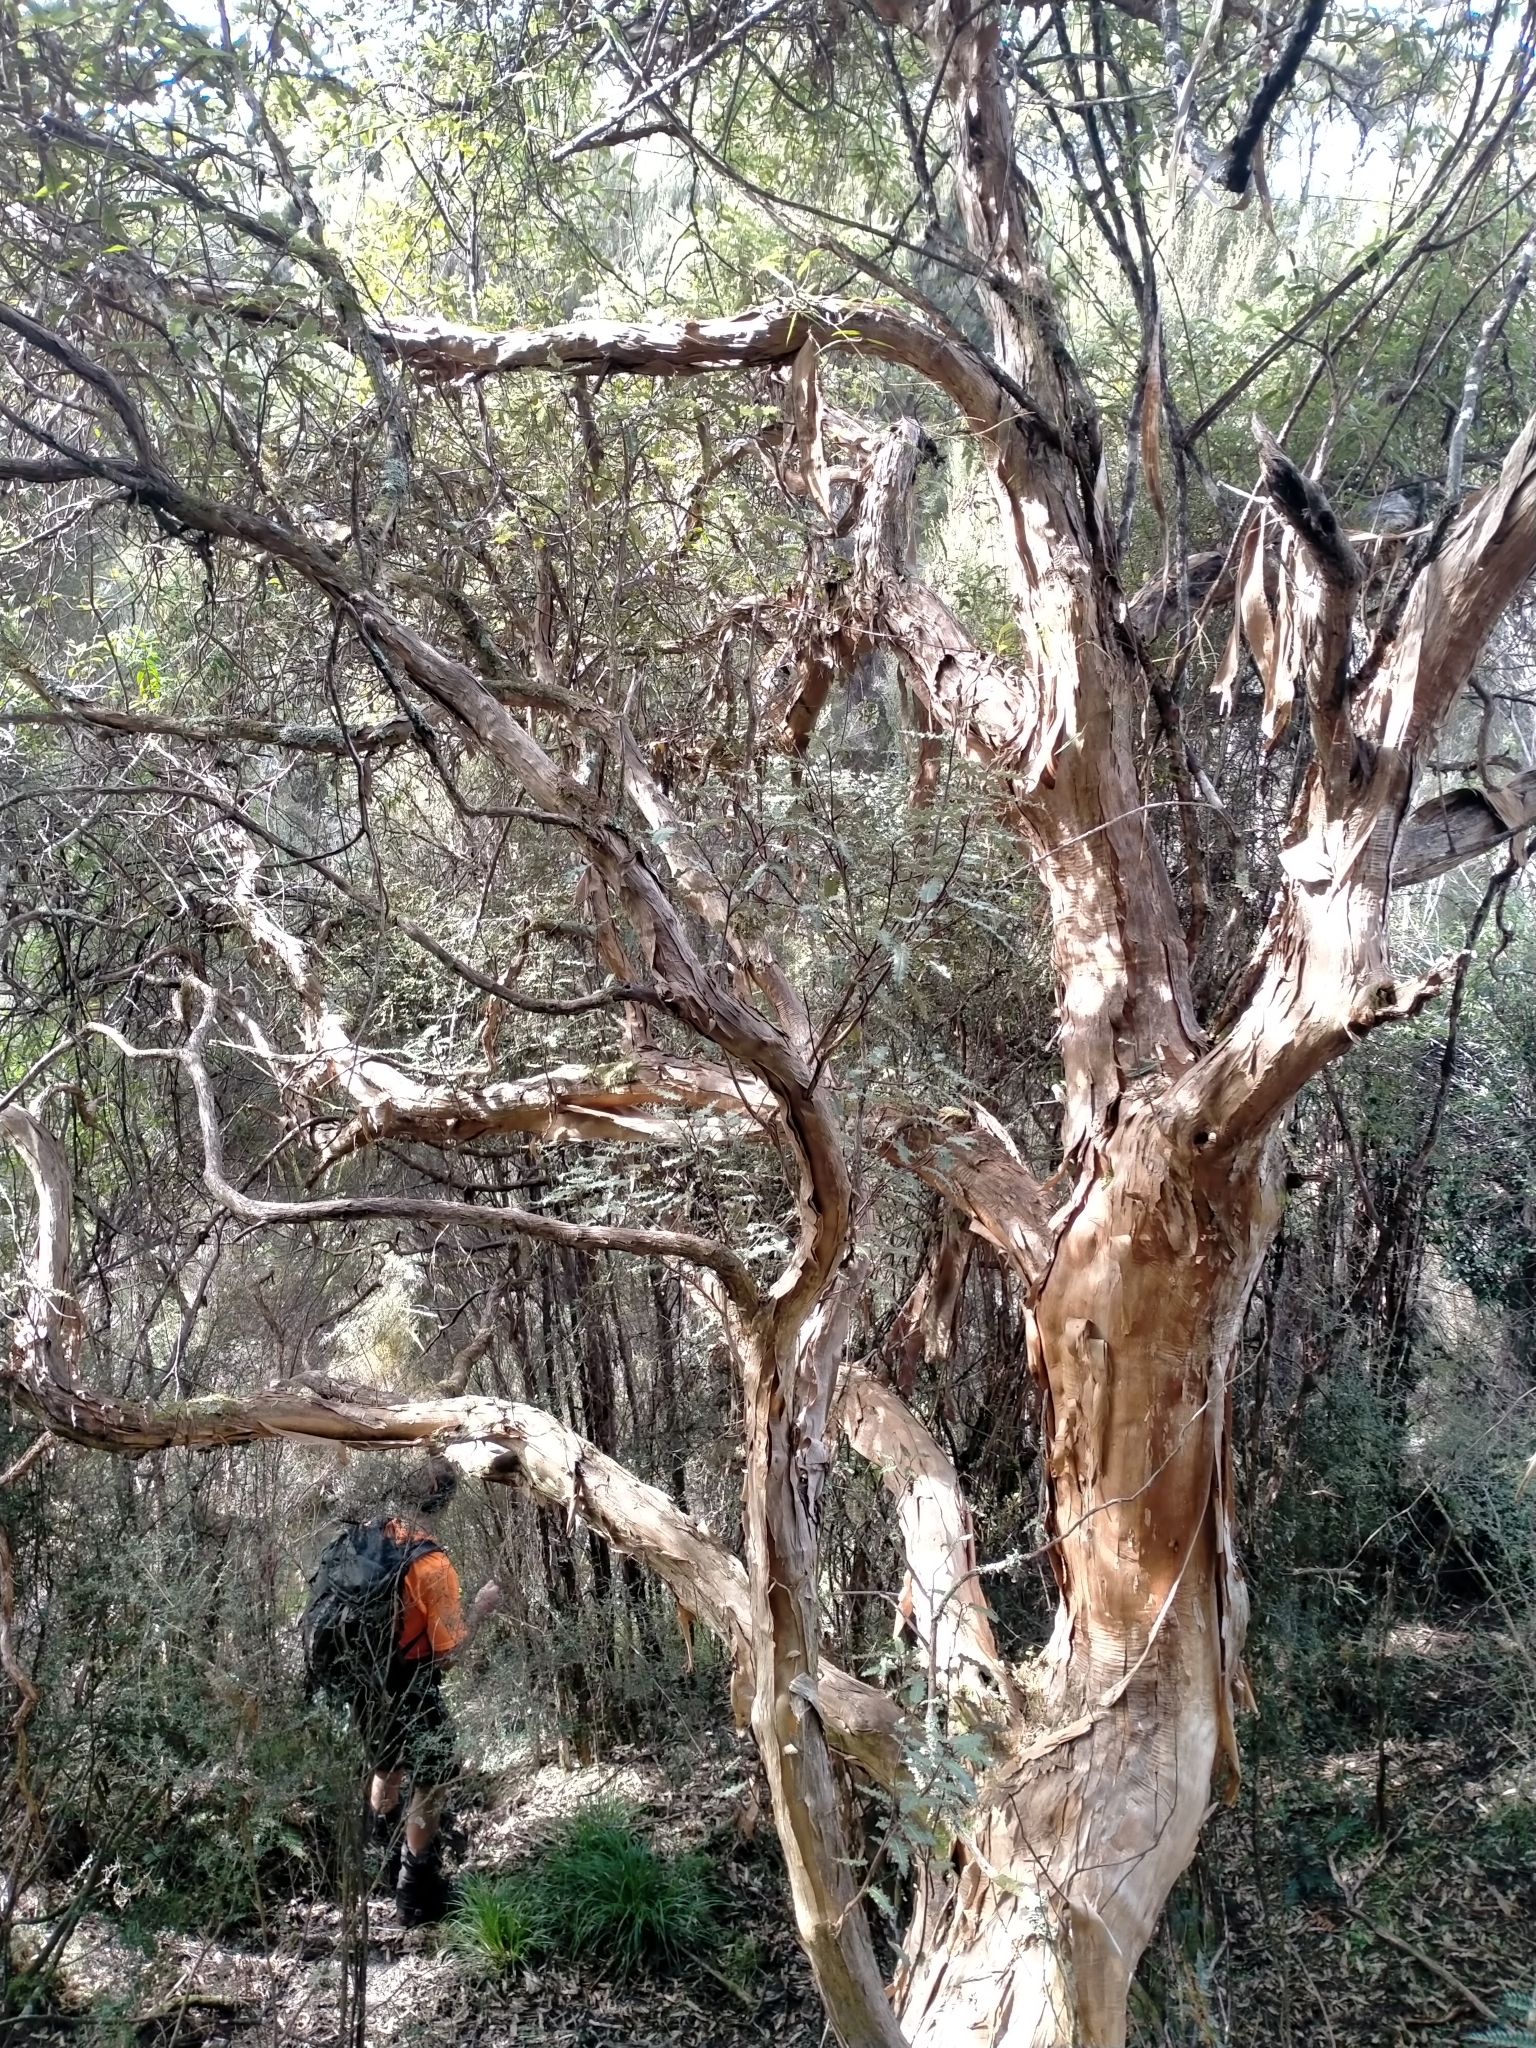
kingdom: Plantae
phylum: Tracheophyta
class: Magnoliopsida
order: Asterales
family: Asteraceae
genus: Olearia
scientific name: Olearia ilicifolia
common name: Maori-holly
